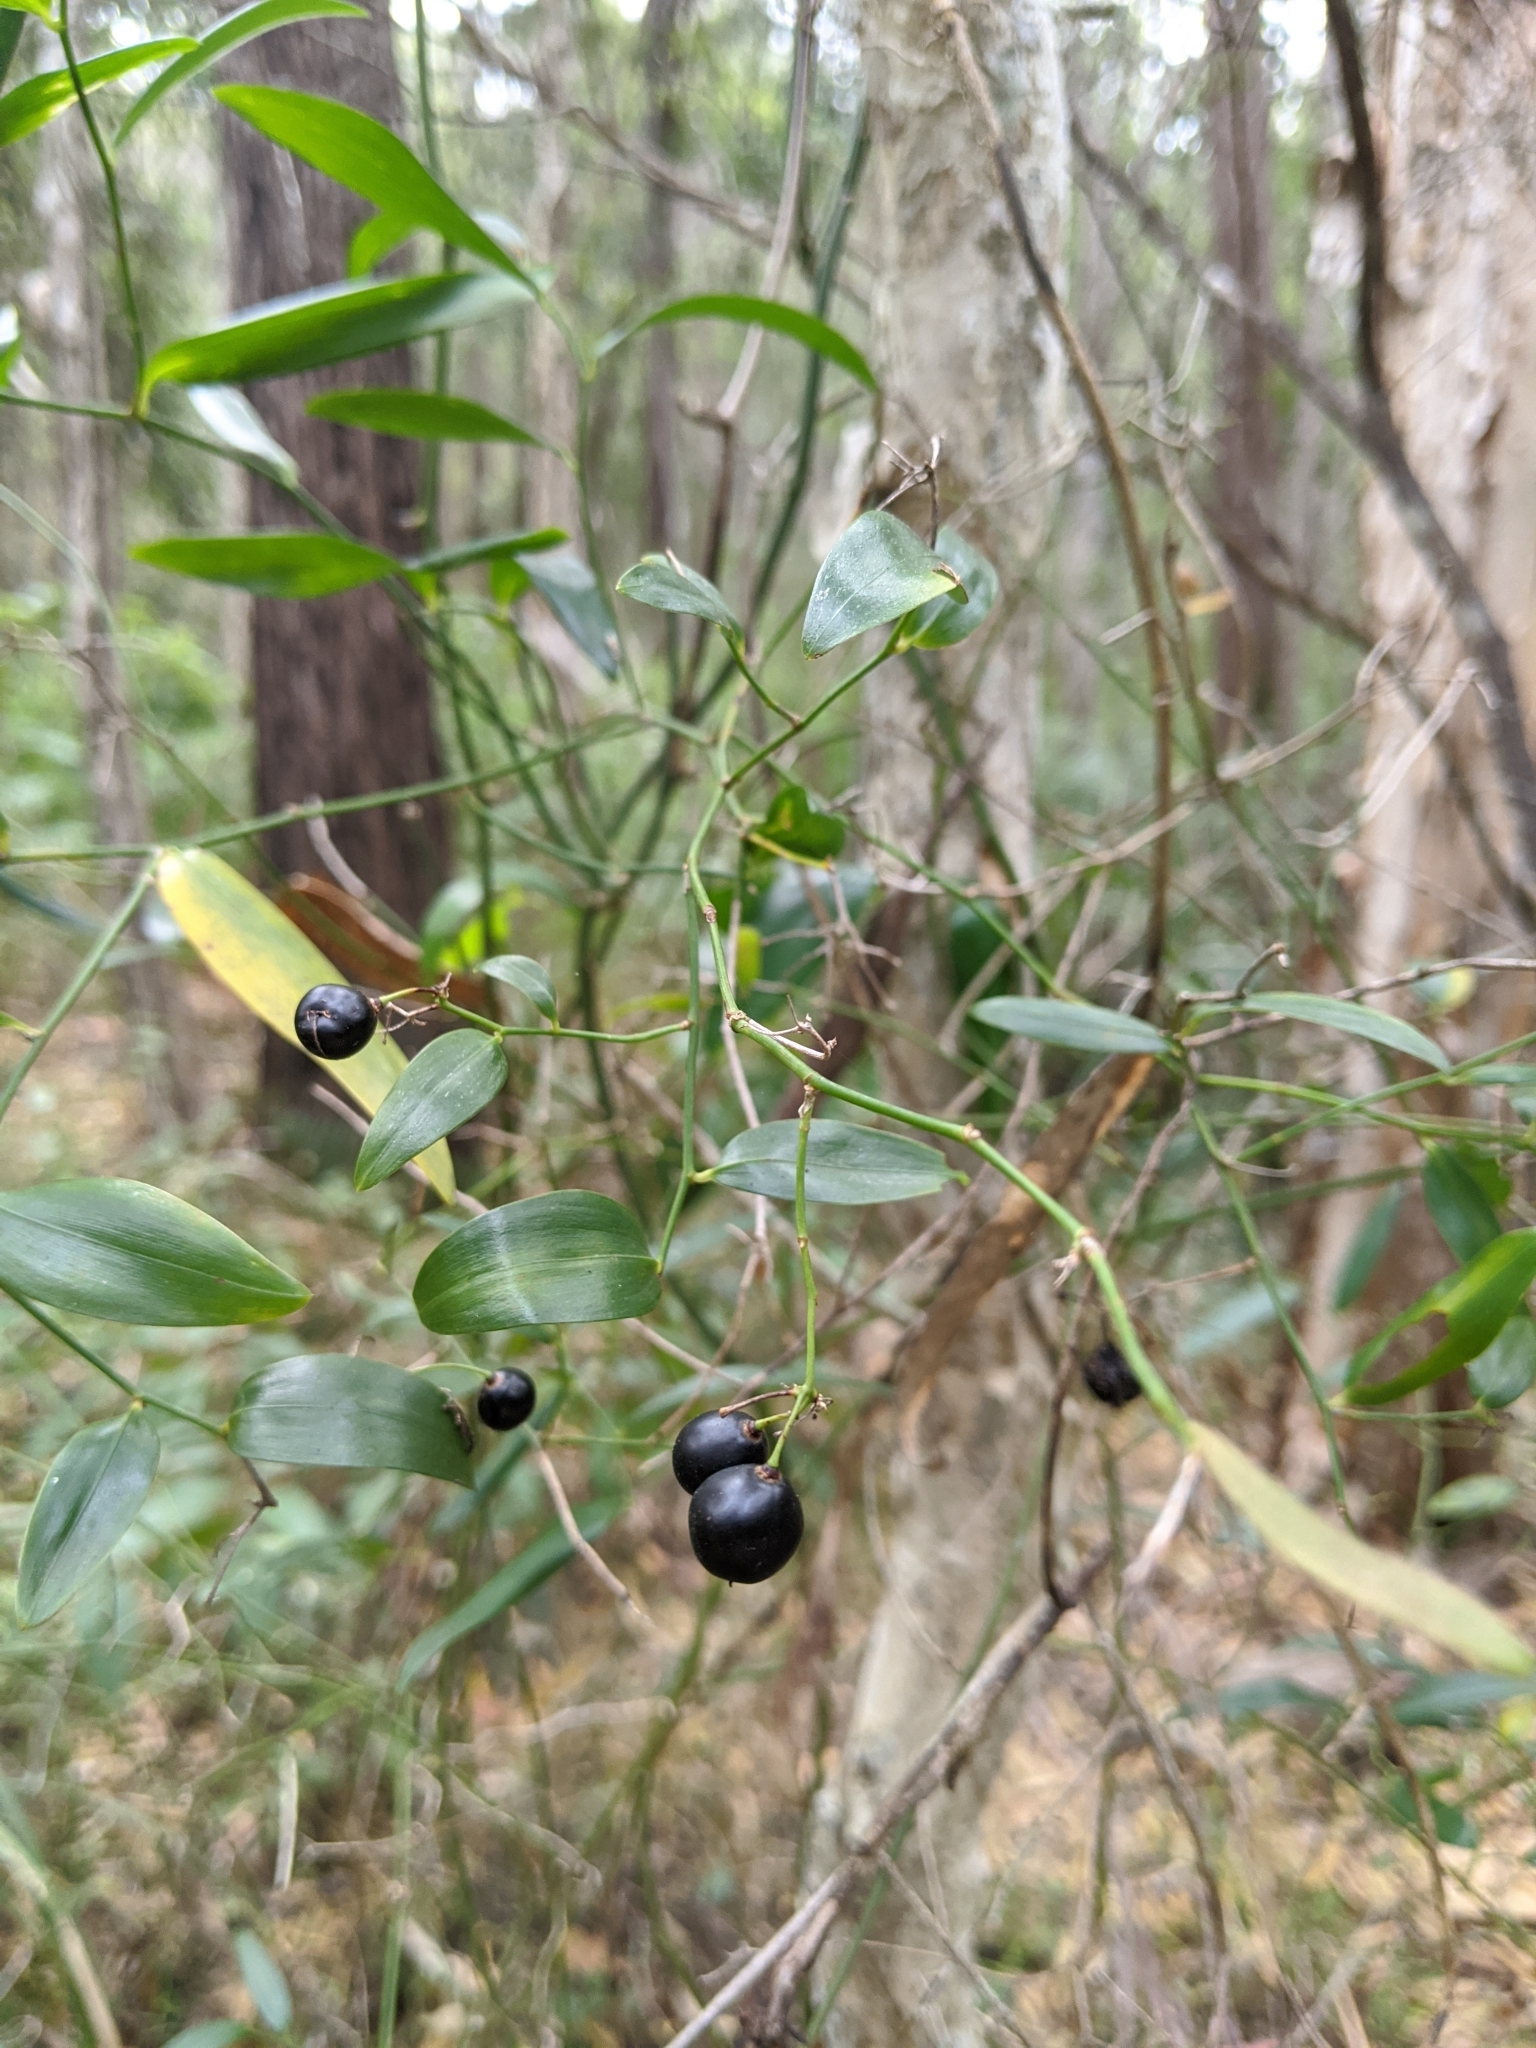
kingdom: Plantae
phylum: Tracheophyta
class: Liliopsida
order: Asparagales
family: Asphodelaceae
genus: Geitonoplesium
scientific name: Geitonoplesium cymosum
